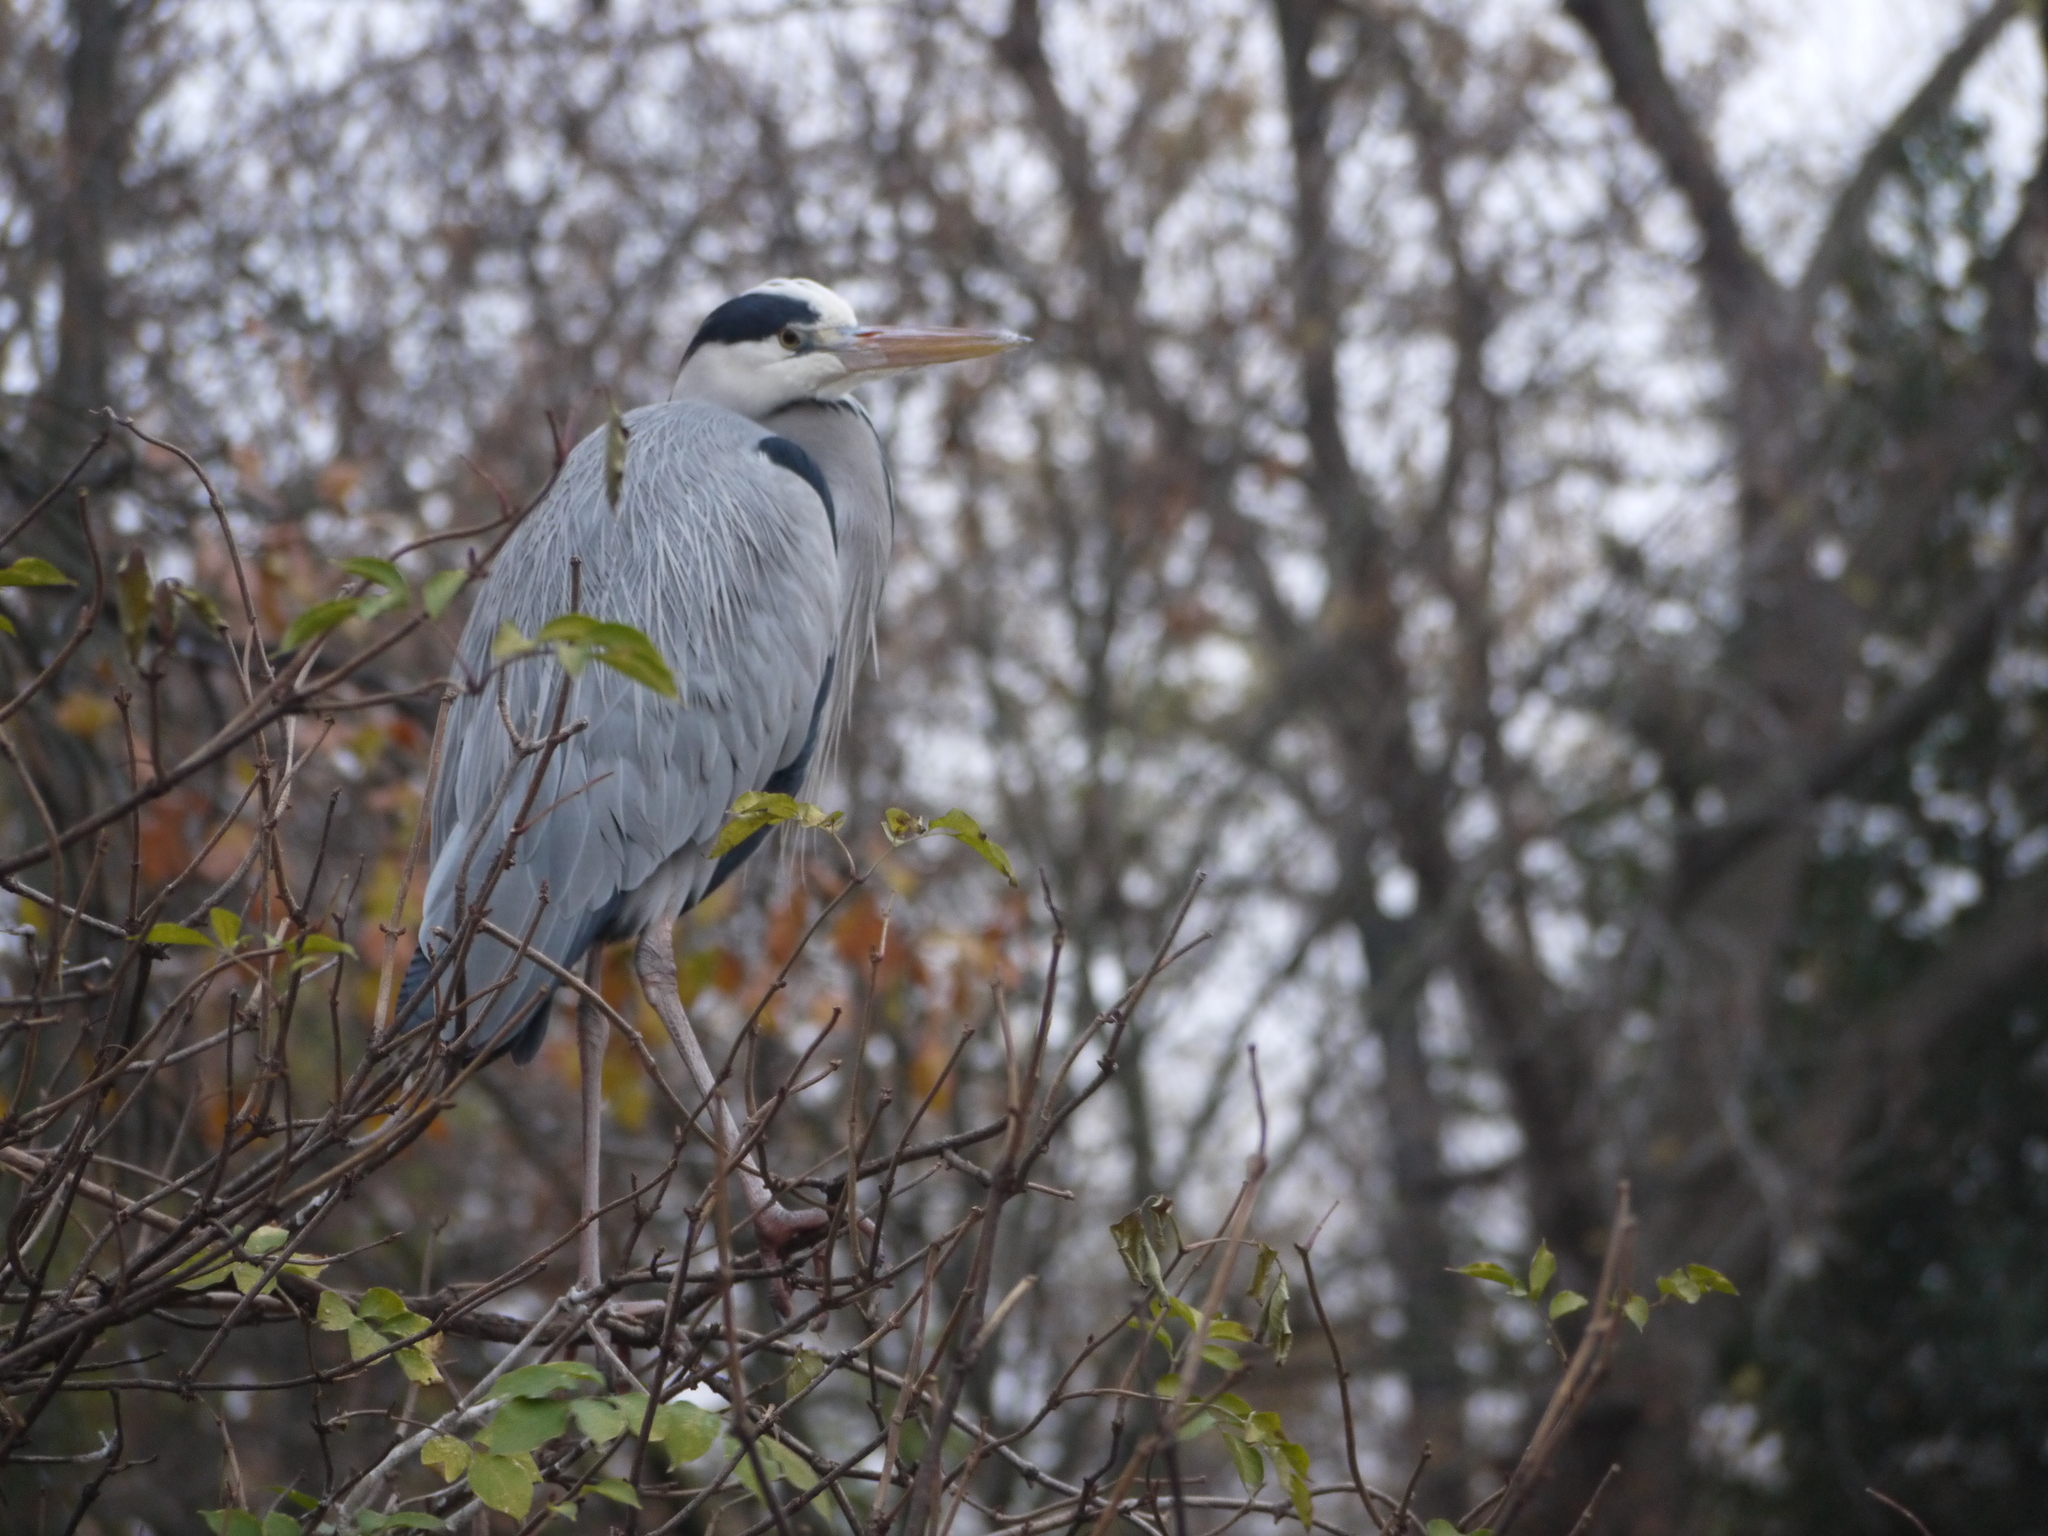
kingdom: Animalia
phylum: Chordata
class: Aves
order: Pelecaniformes
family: Ardeidae
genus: Ardea
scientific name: Ardea cinerea
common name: Grey heron
